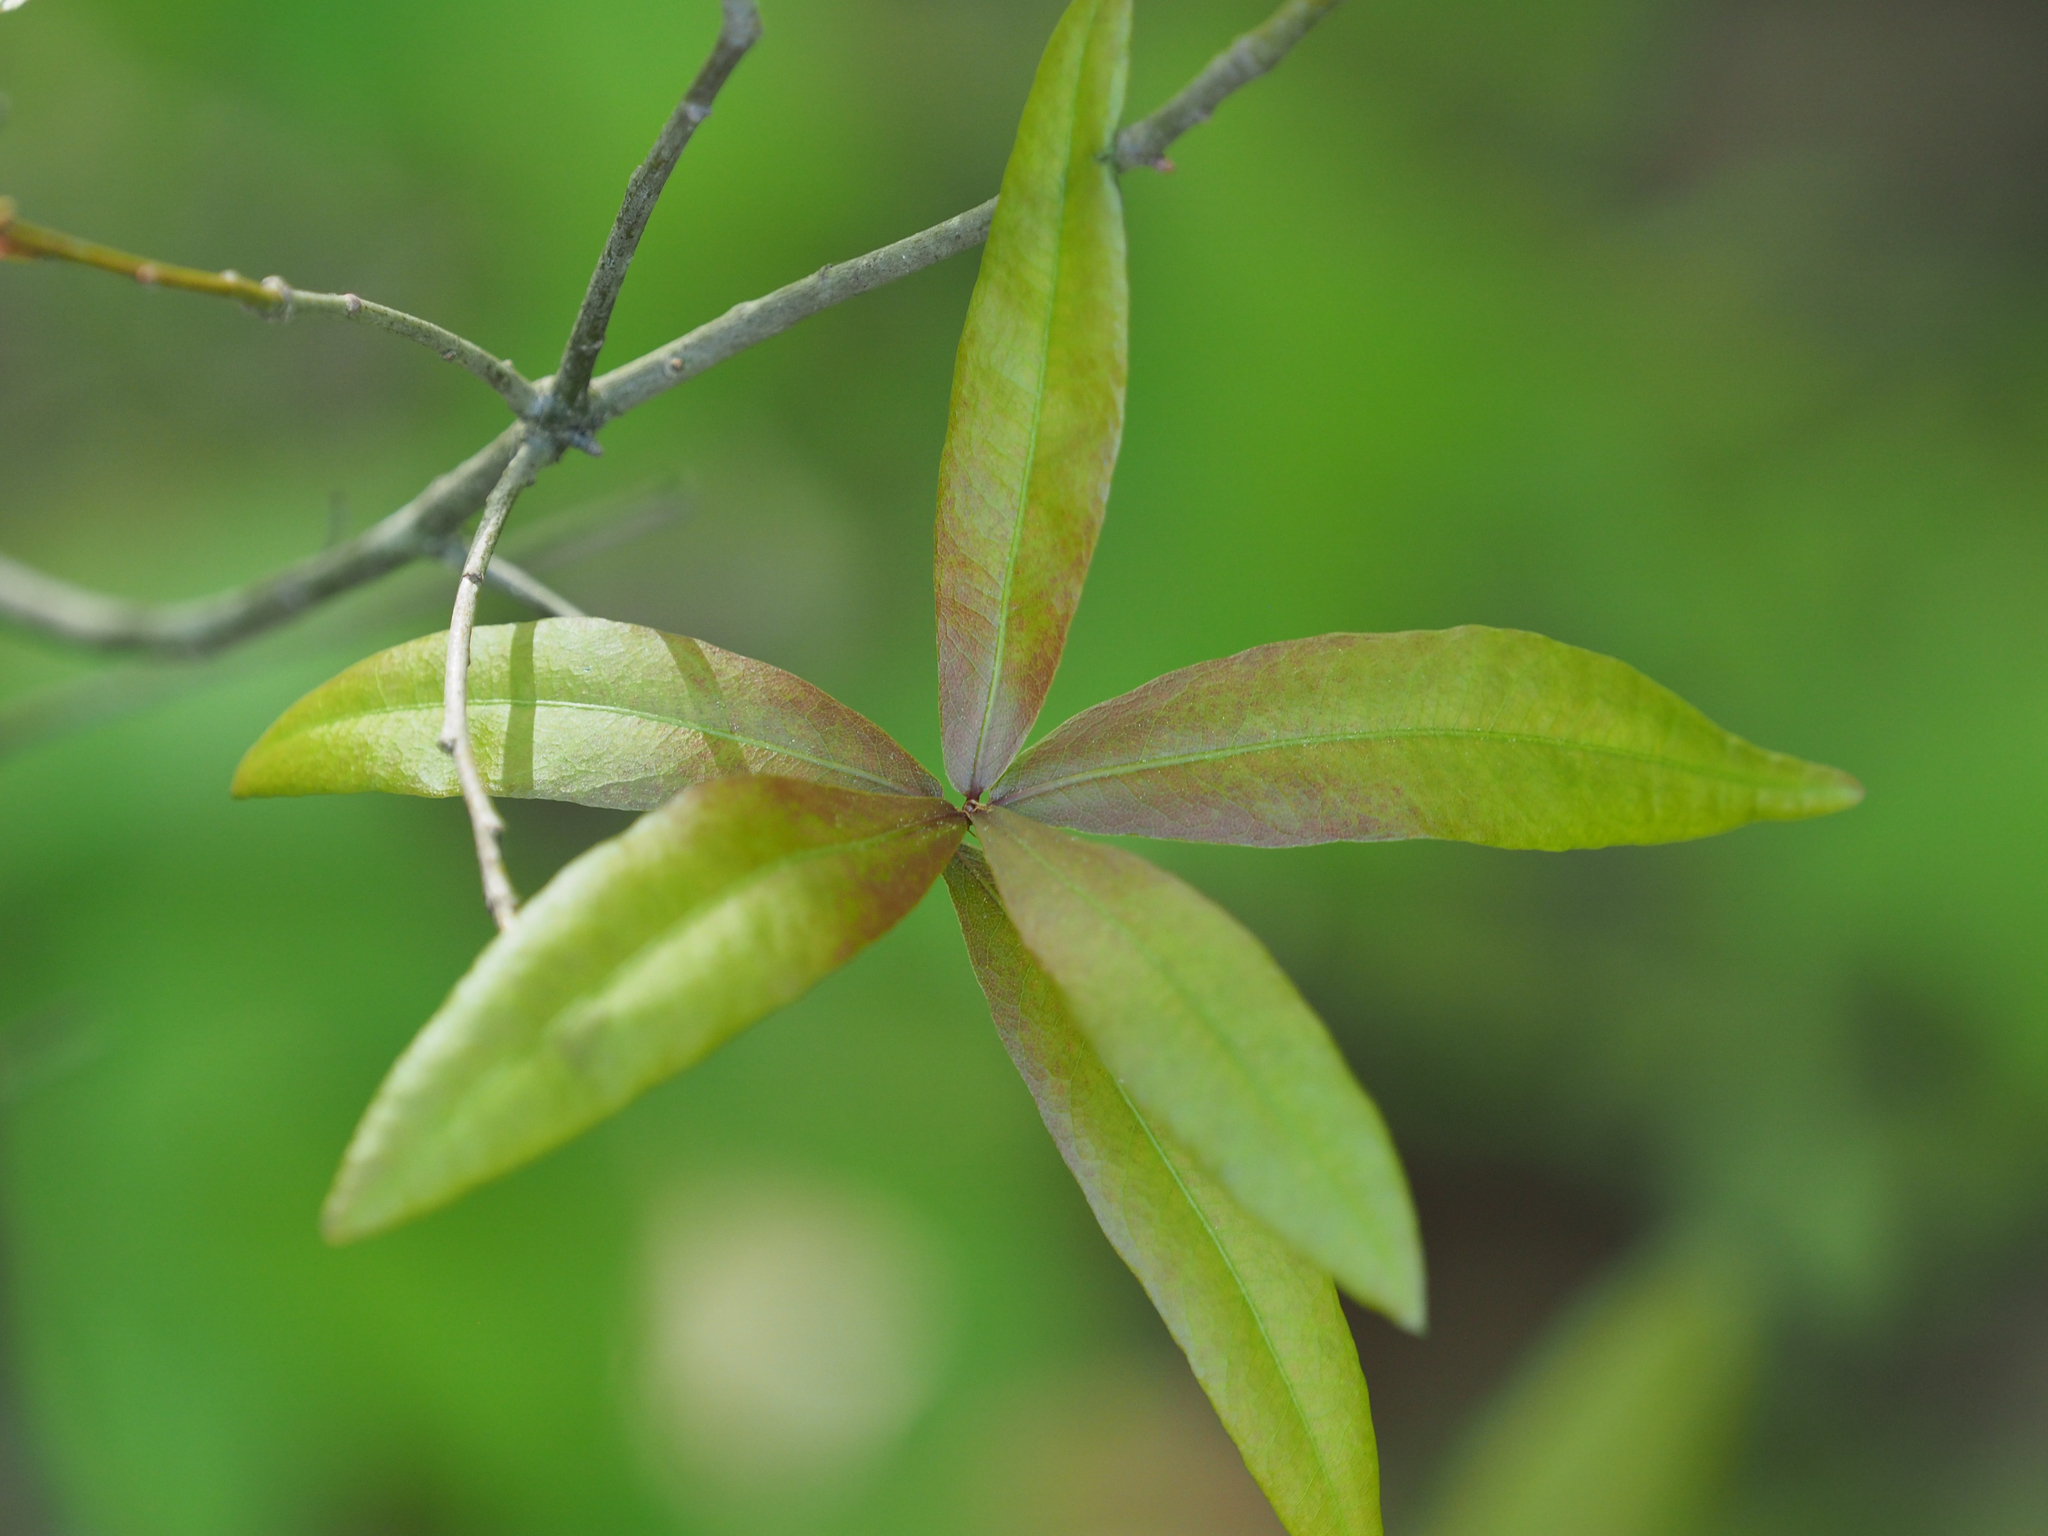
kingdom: Plantae
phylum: Tracheophyta
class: Magnoliopsida
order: Fagales
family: Fagaceae
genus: Quercus
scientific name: Quercus phellos
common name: Willow oak
